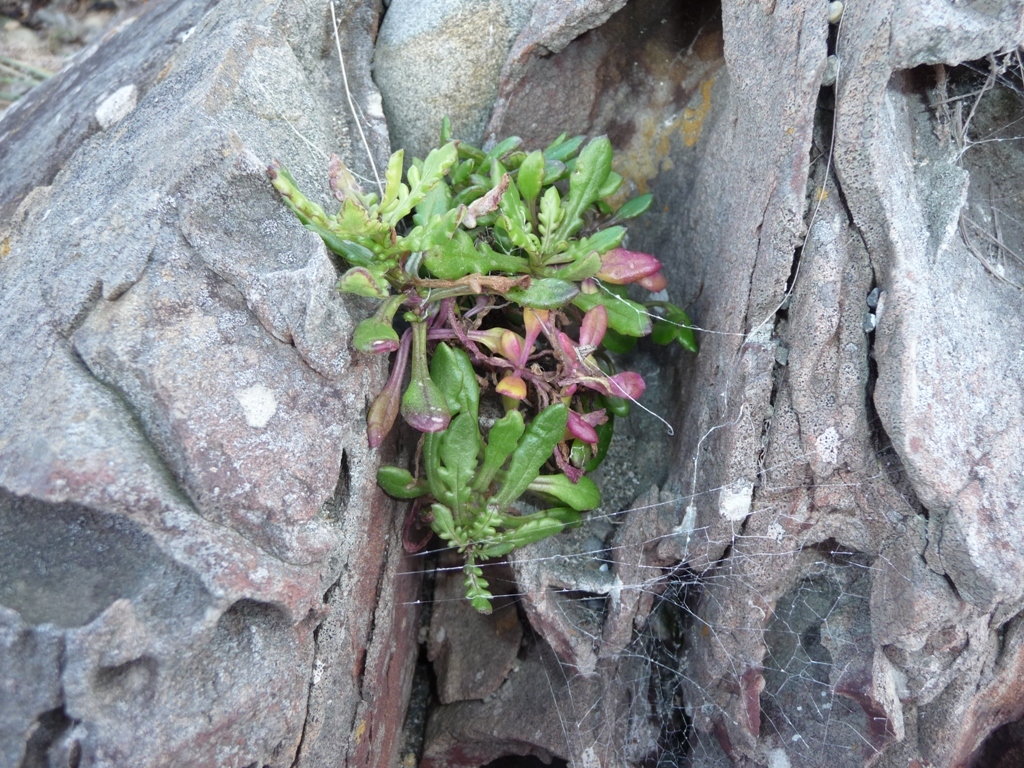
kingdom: Plantae
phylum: Tracheophyta
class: Magnoliopsida
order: Asterales
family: Asteraceae
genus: Senecio
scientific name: Senecio lautus
